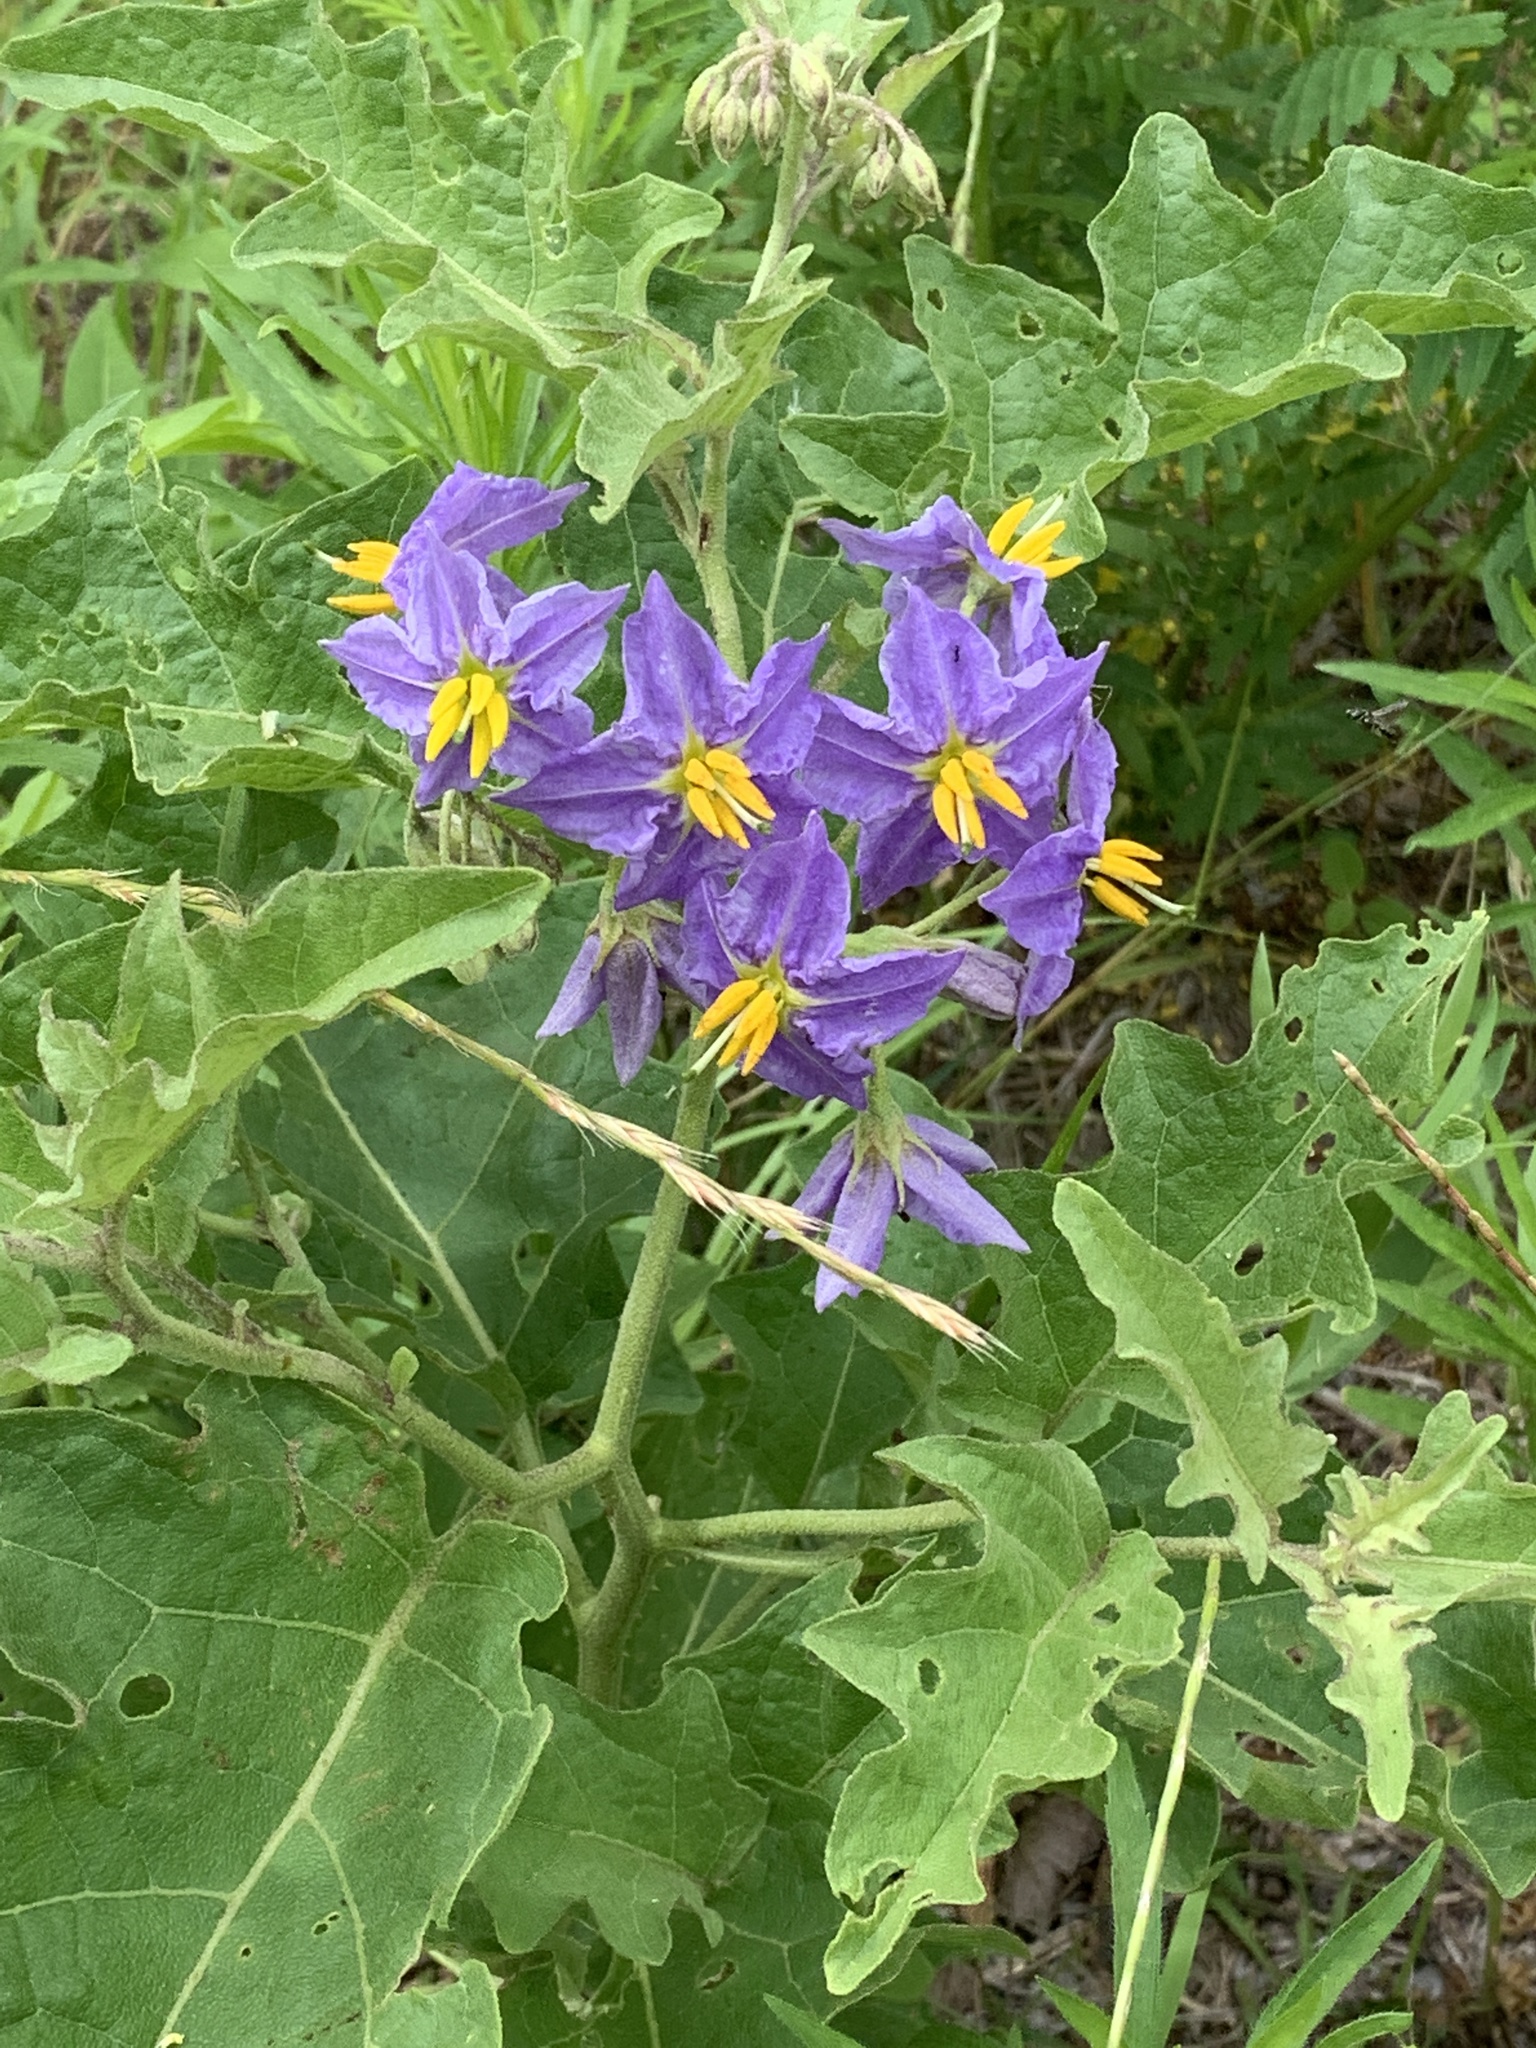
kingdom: Plantae
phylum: Tracheophyta
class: Magnoliopsida
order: Solanales
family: Solanaceae
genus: Solanum
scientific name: Solanum dimidiatum
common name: Carolina horse-nettle
